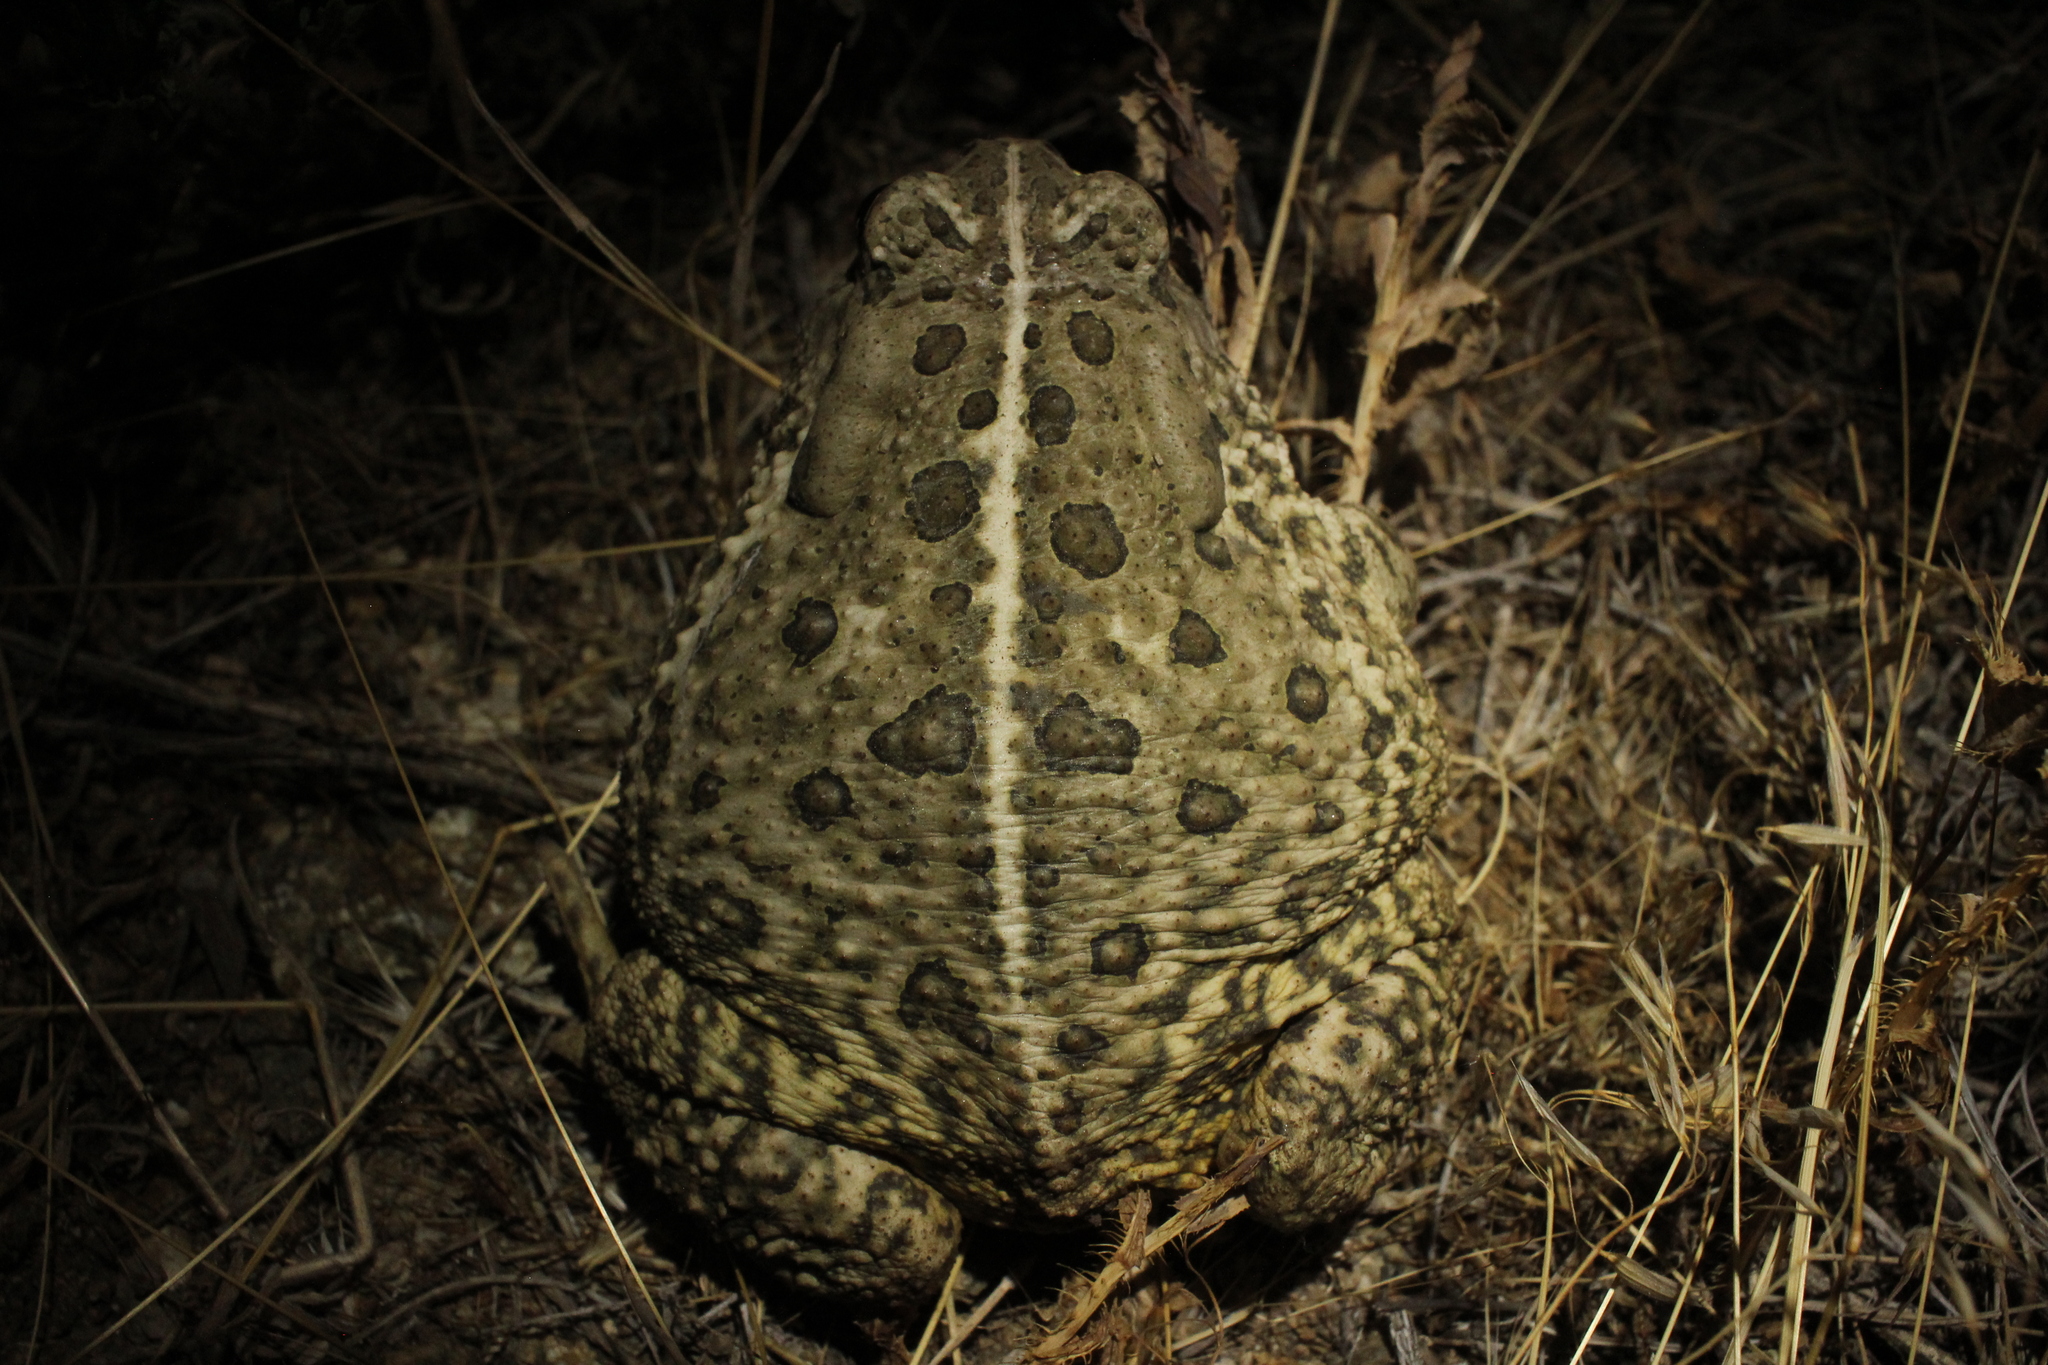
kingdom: Animalia
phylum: Chordata
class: Amphibia
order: Anura
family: Bufonidae
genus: Anaxyrus
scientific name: Anaxyrus woodhousii
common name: Woodhouse's toad
